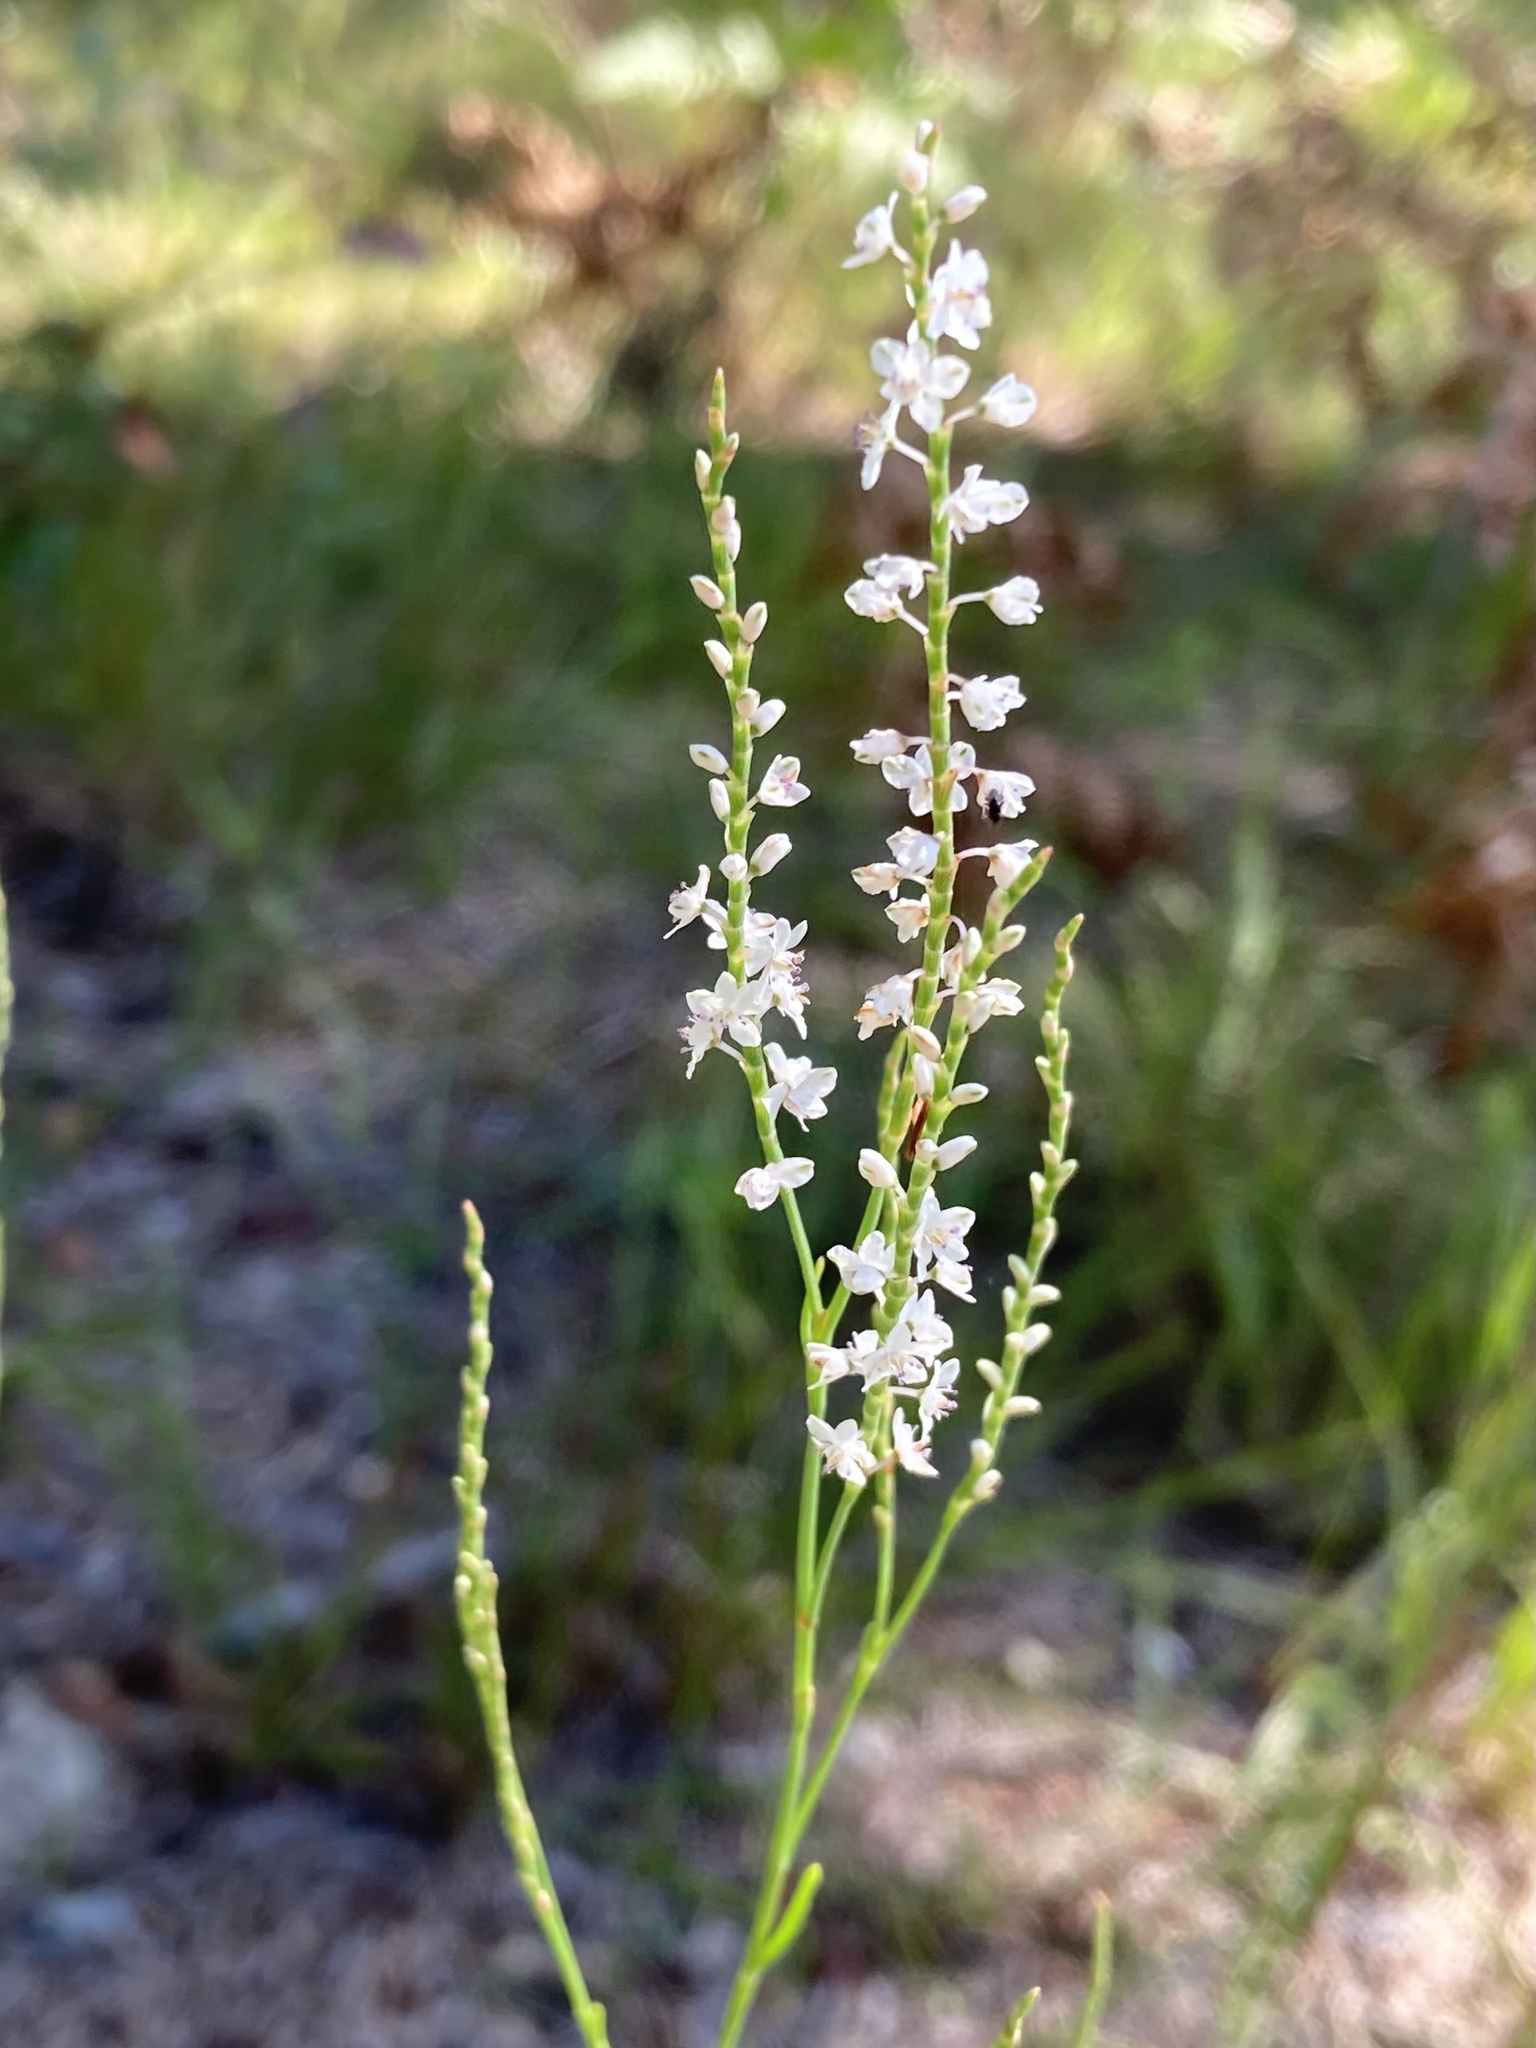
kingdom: Plantae
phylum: Tracheophyta
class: Magnoliopsida
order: Caryophyllales
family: Polygonaceae
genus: Polygonella
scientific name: Polygonella articulata
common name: Coastal jointweed
